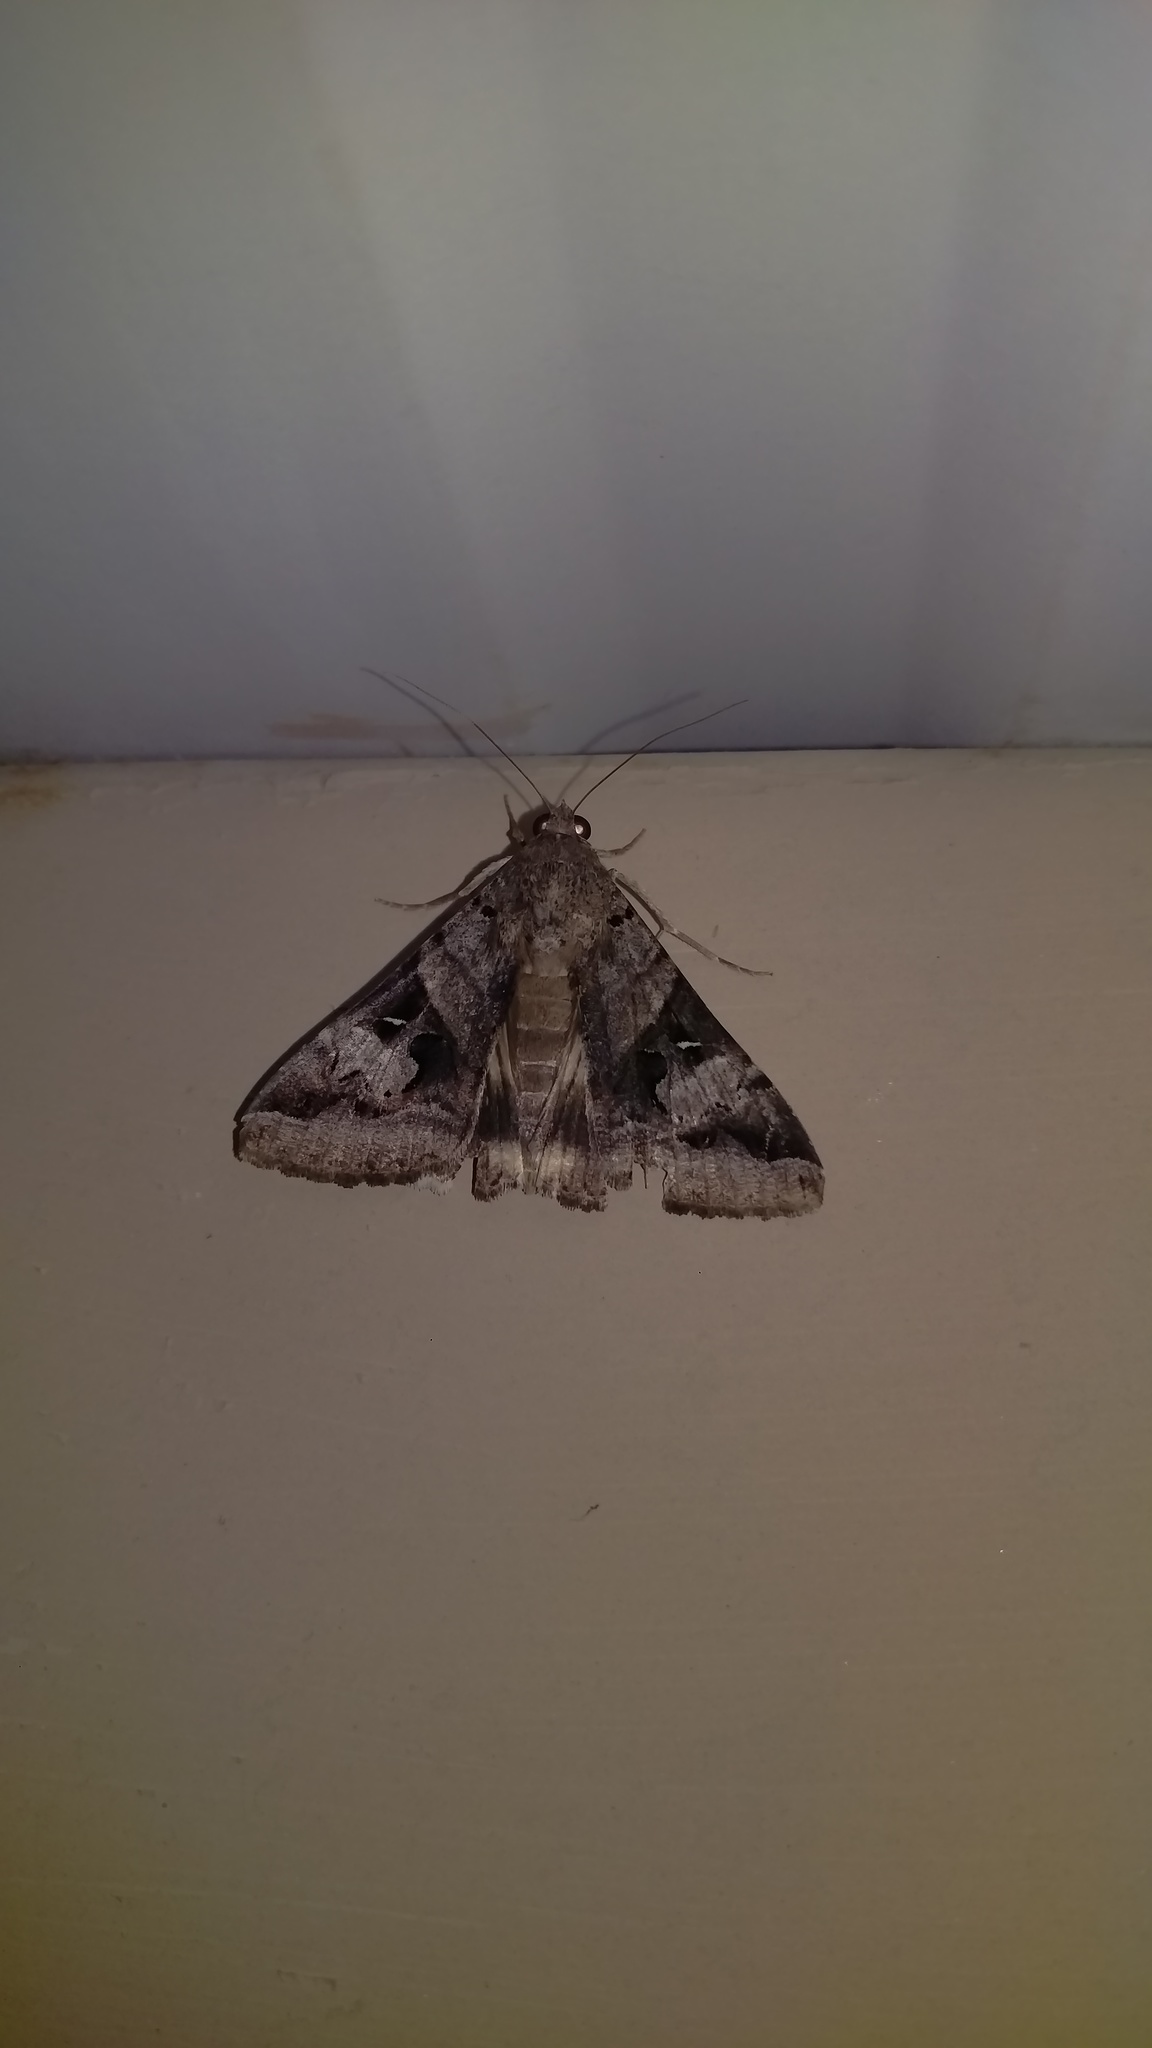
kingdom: Animalia
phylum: Arthropoda
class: Insecta
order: Lepidoptera
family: Erebidae
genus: Melipotis
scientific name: Melipotis indomita
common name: Moth
